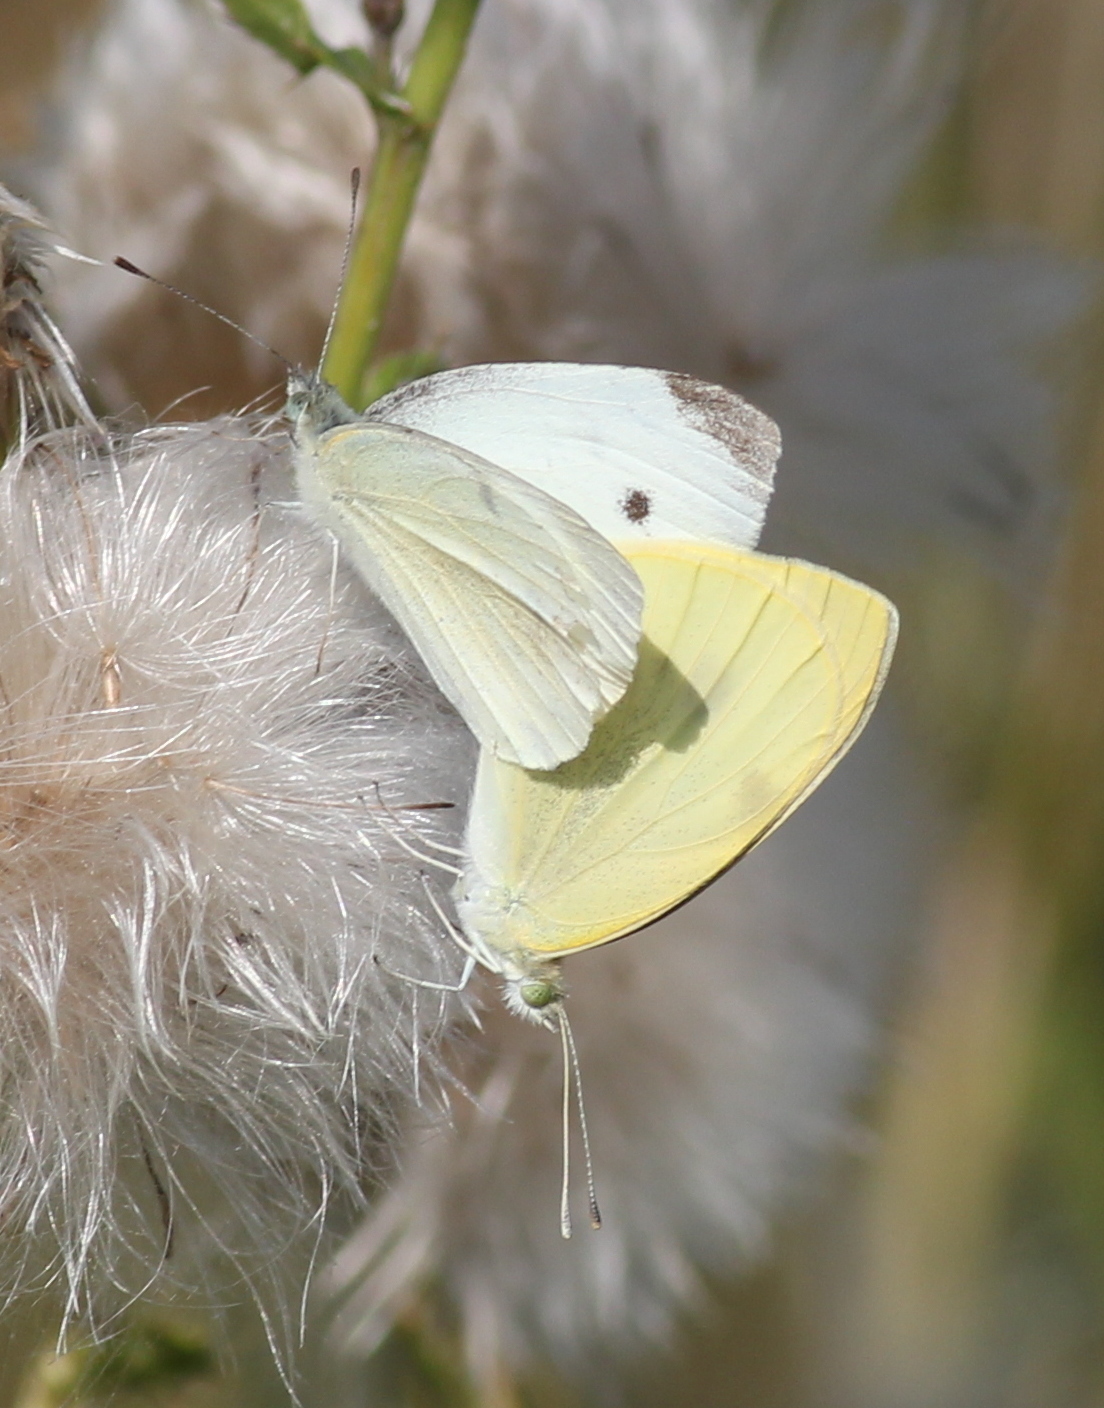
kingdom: Animalia
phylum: Arthropoda
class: Insecta
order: Lepidoptera
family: Pieridae
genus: Pieris
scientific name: Pieris rapae
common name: Small white
